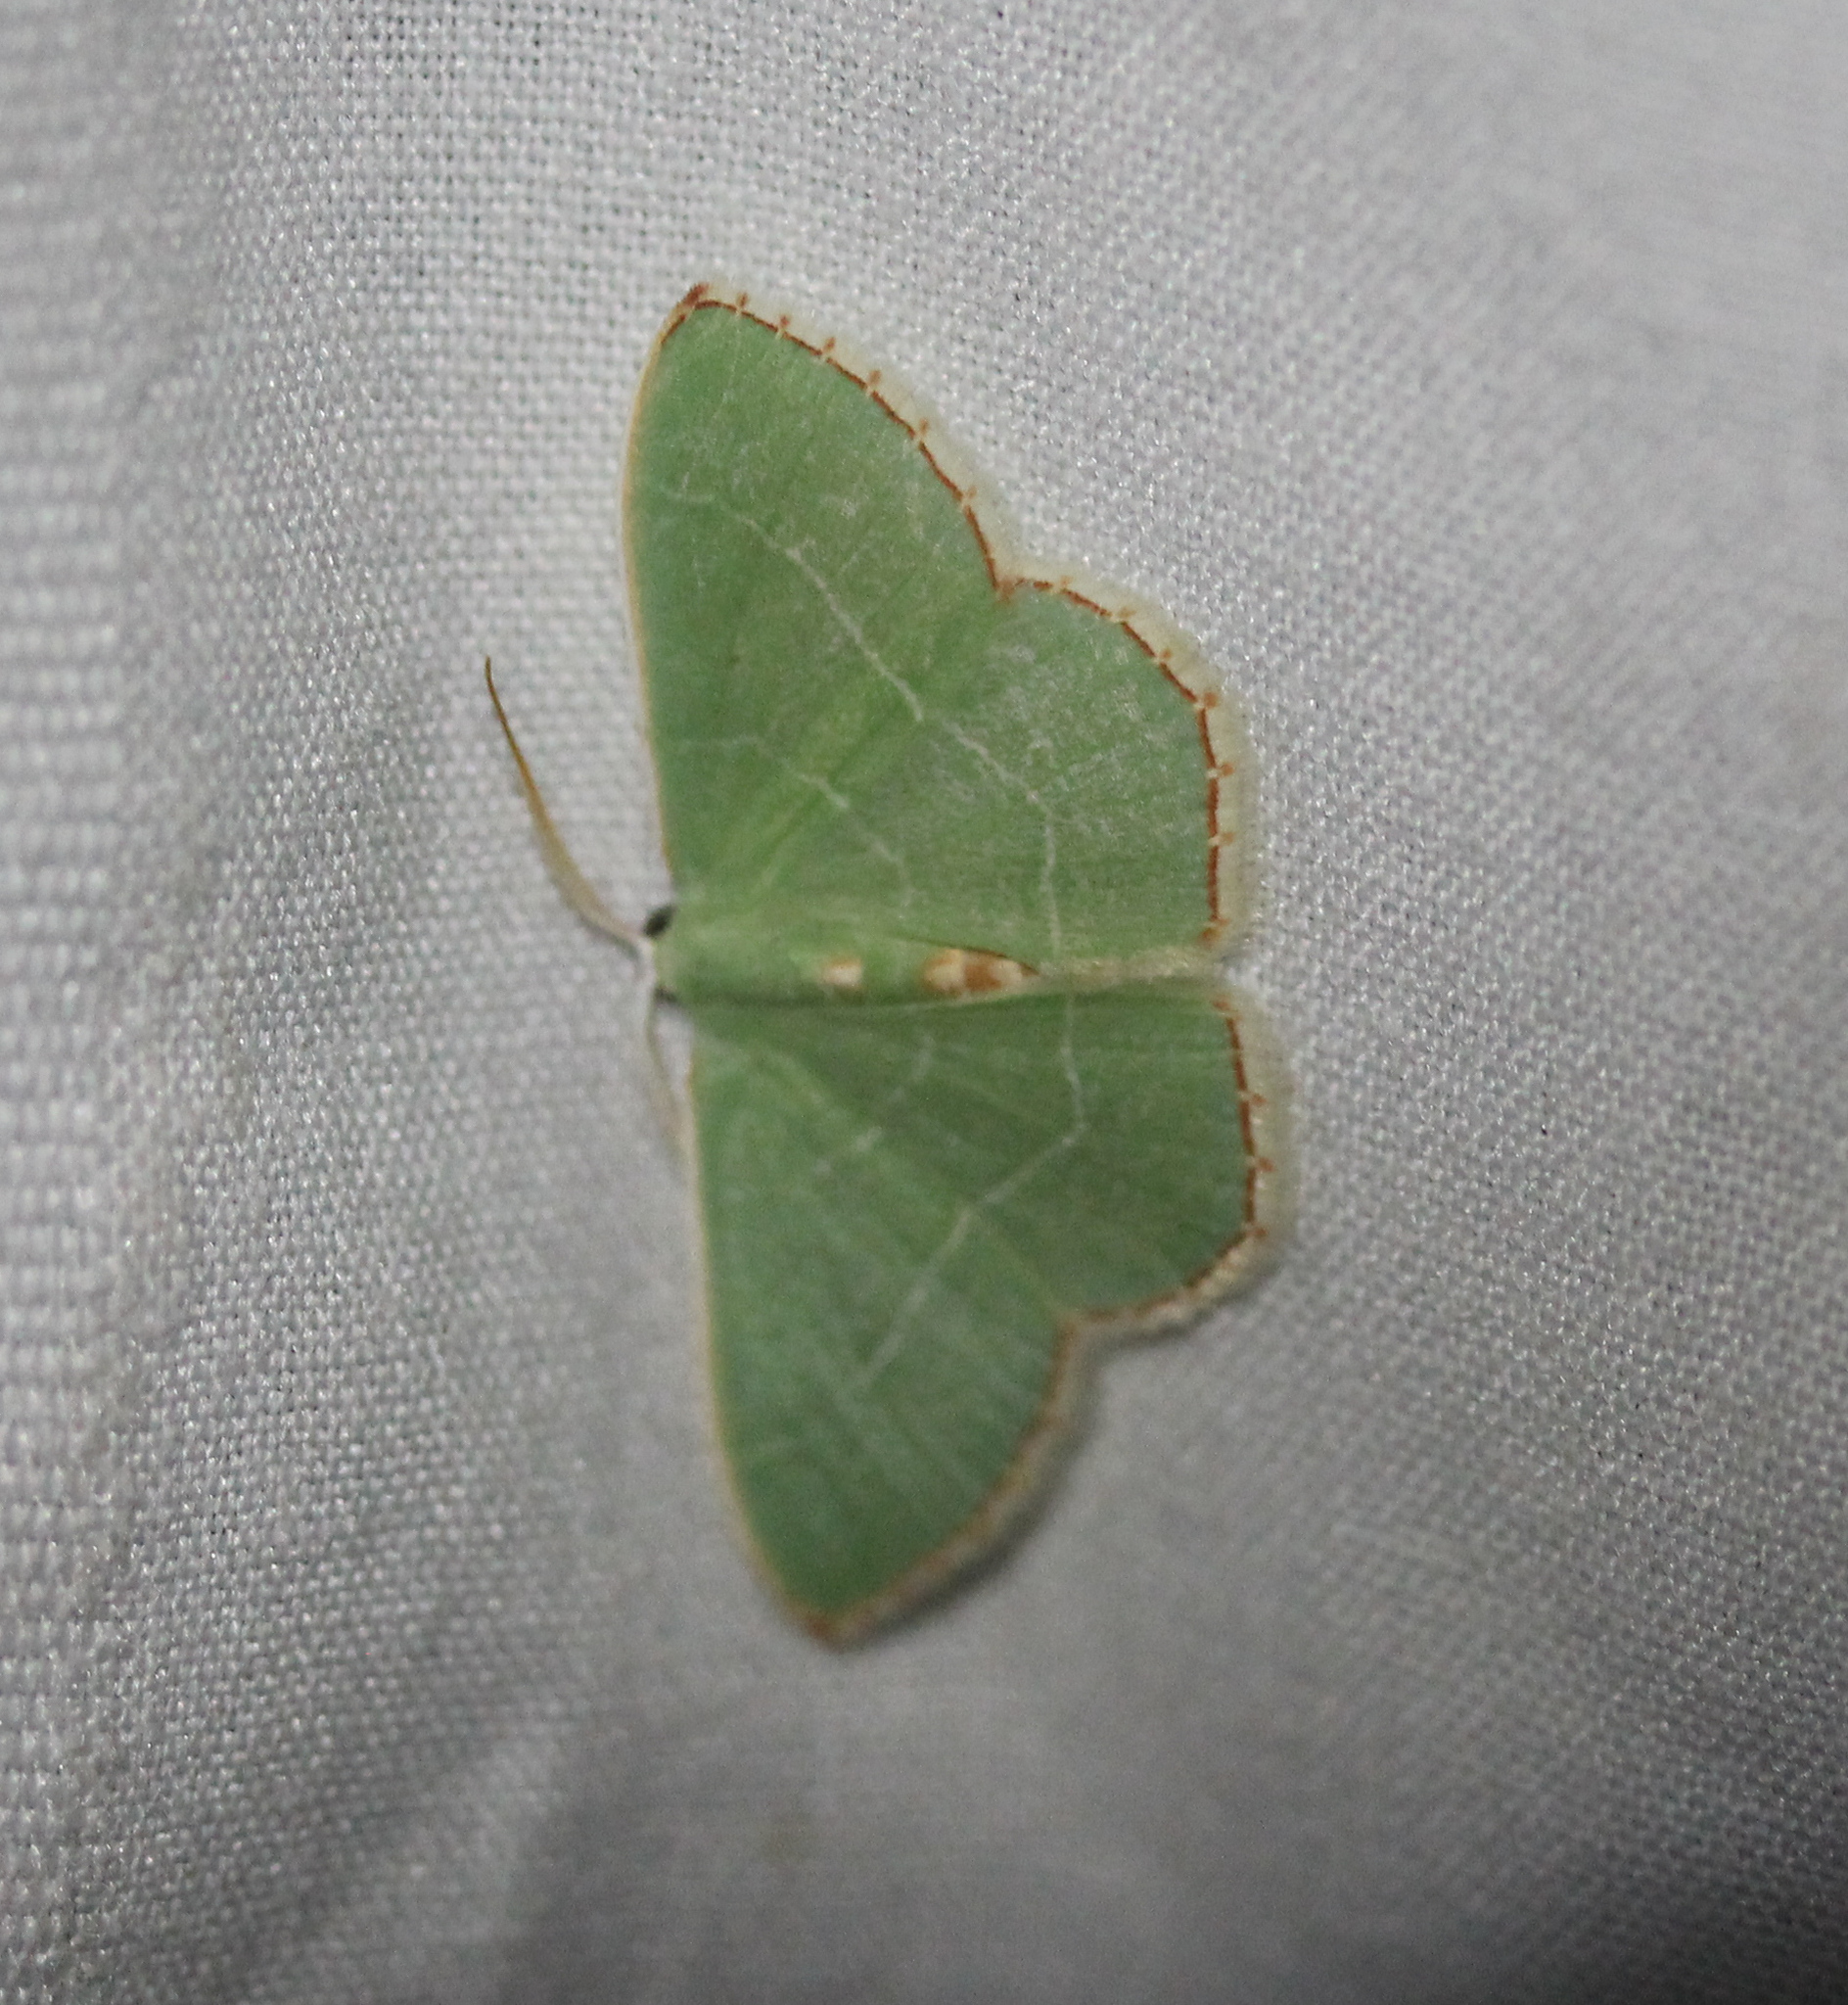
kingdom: Animalia
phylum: Arthropoda
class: Insecta
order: Lepidoptera
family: Geometridae
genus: Nemoria
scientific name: Nemoria bistriaria
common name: Red-fringed emerald
